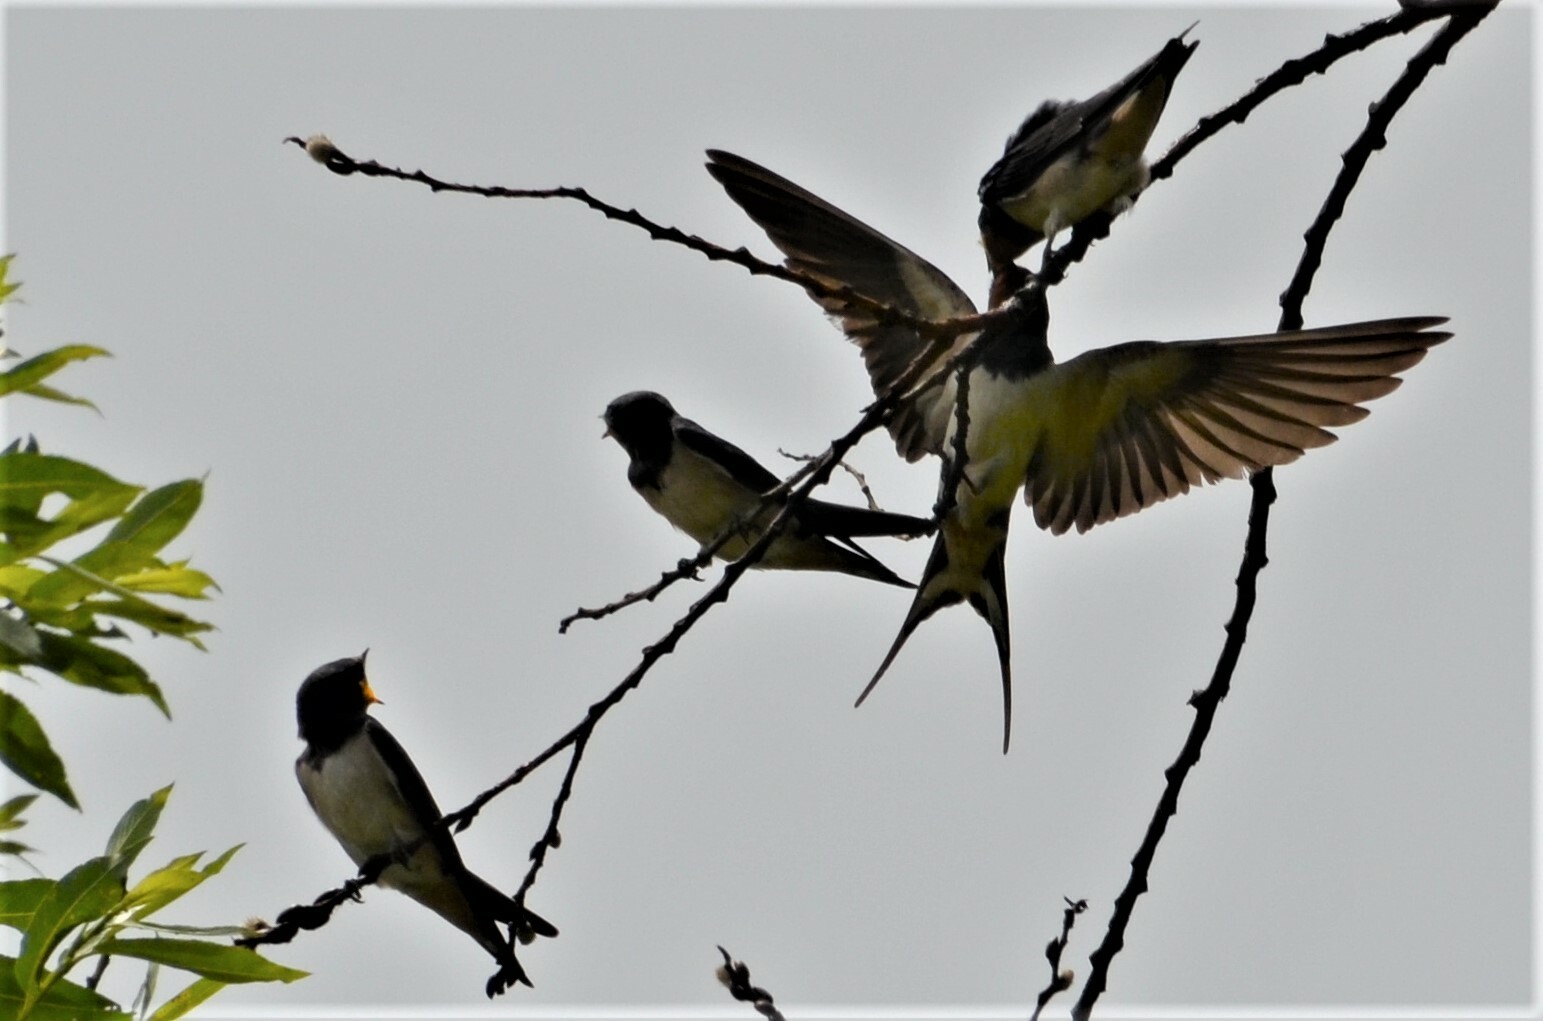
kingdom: Animalia
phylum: Chordata
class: Aves
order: Passeriformes
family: Hirundinidae
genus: Hirundo
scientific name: Hirundo rustica
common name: Barn swallow
